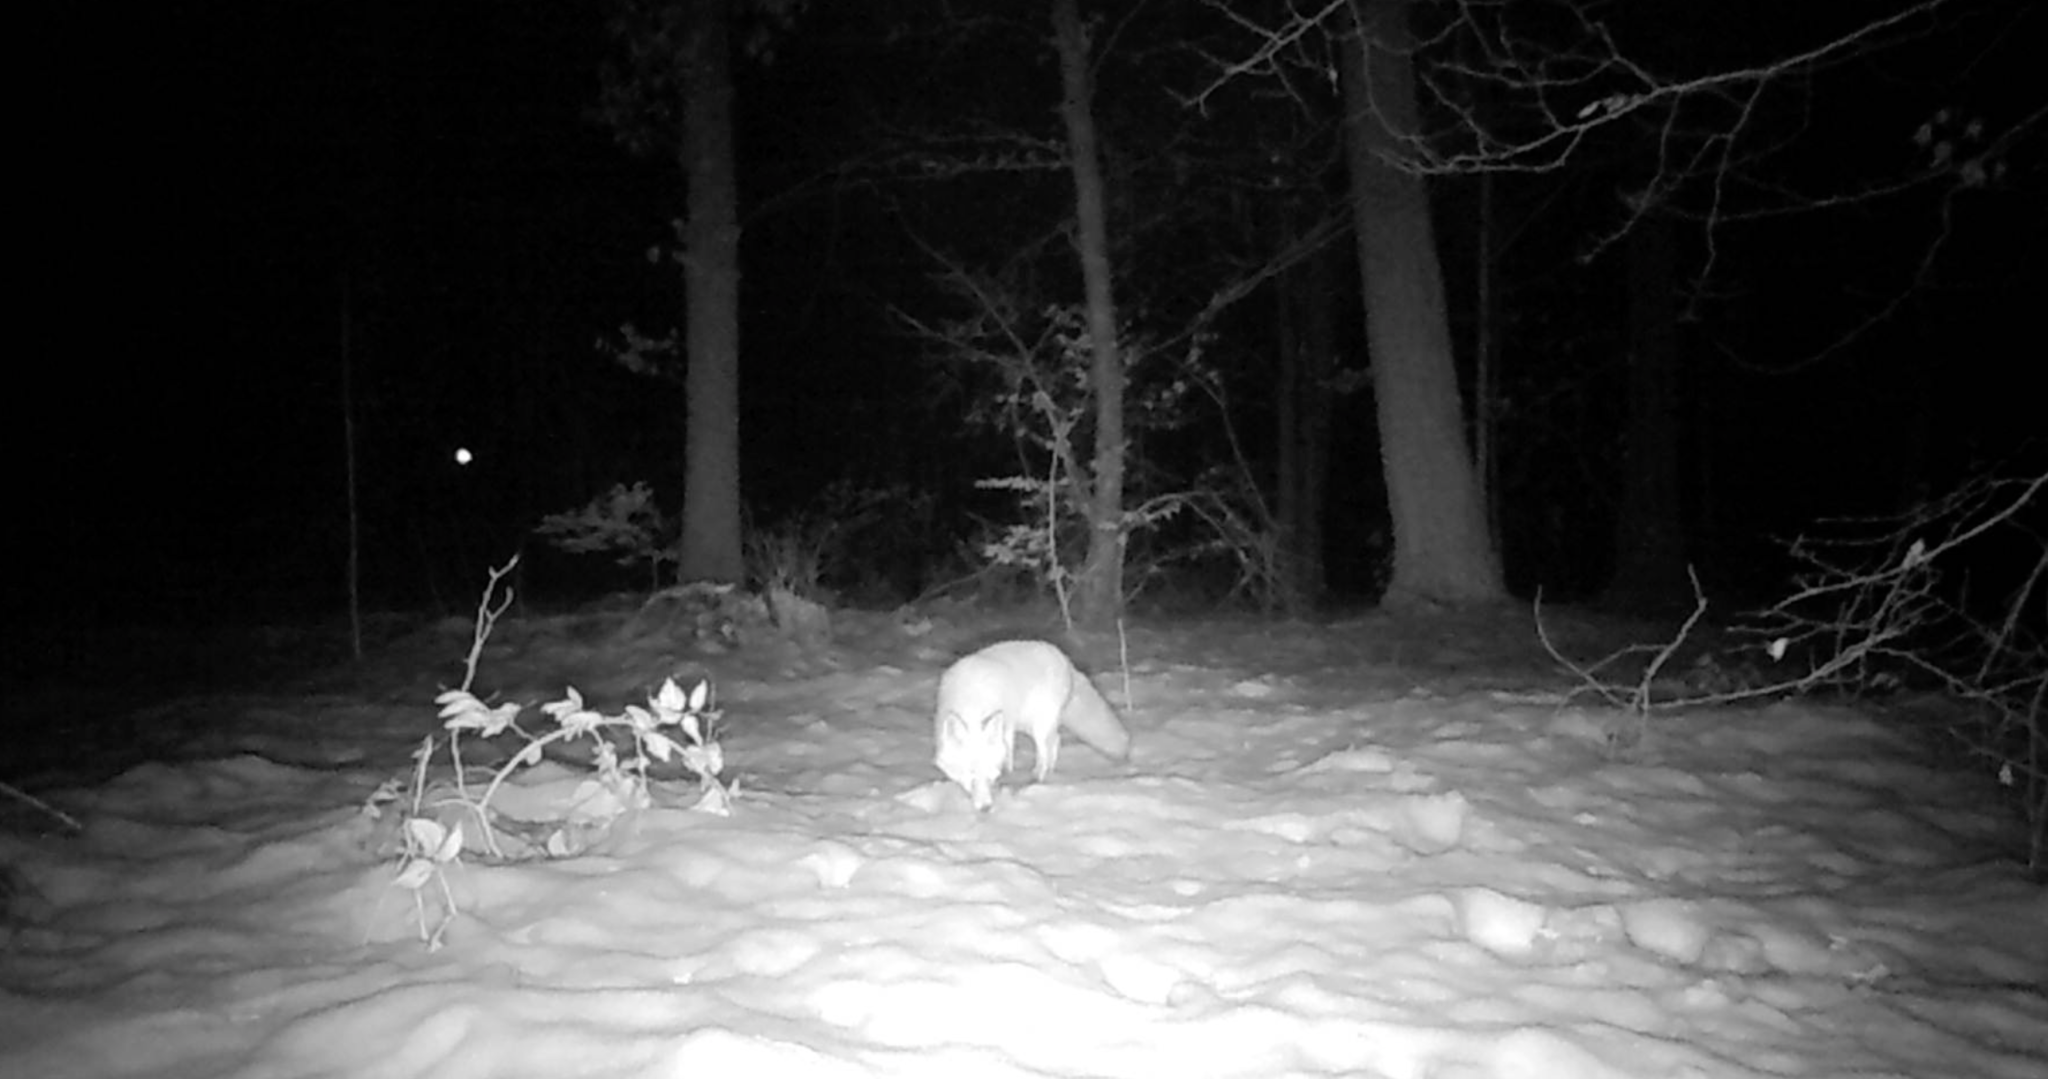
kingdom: Animalia
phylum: Chordata
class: Mammalia
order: Carnivora
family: Canidae
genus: Vulpes
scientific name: Vulpes vulpes
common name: Red fox
